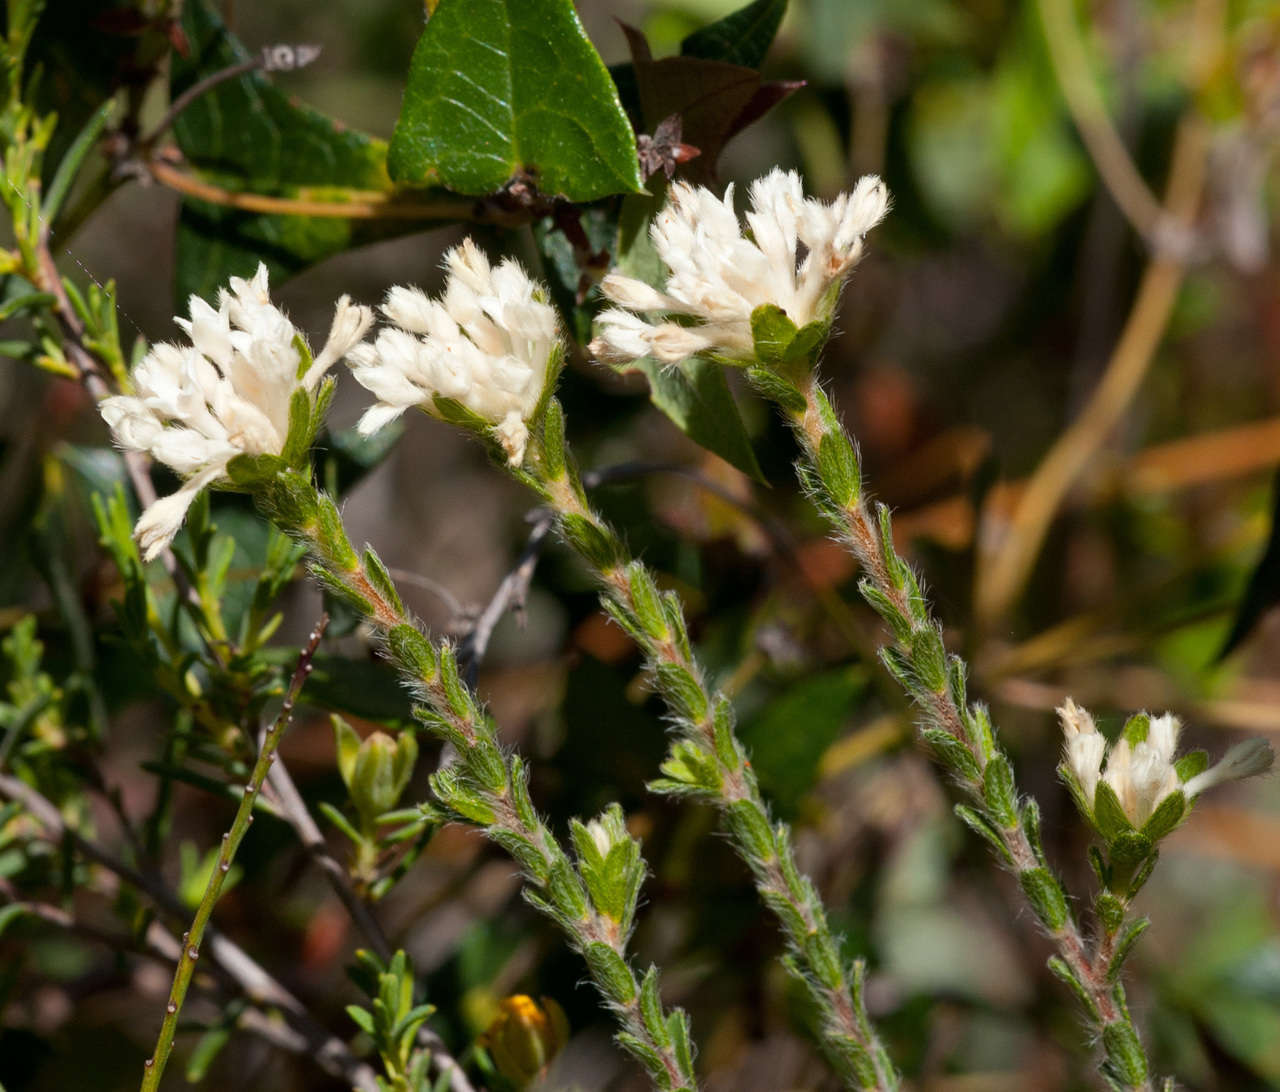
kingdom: Plantae
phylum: Tracheophyta
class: Magnoliopsida
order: Malvales
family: Thymelaeaceae
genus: Pimelea
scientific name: Pimelea phylicoides
